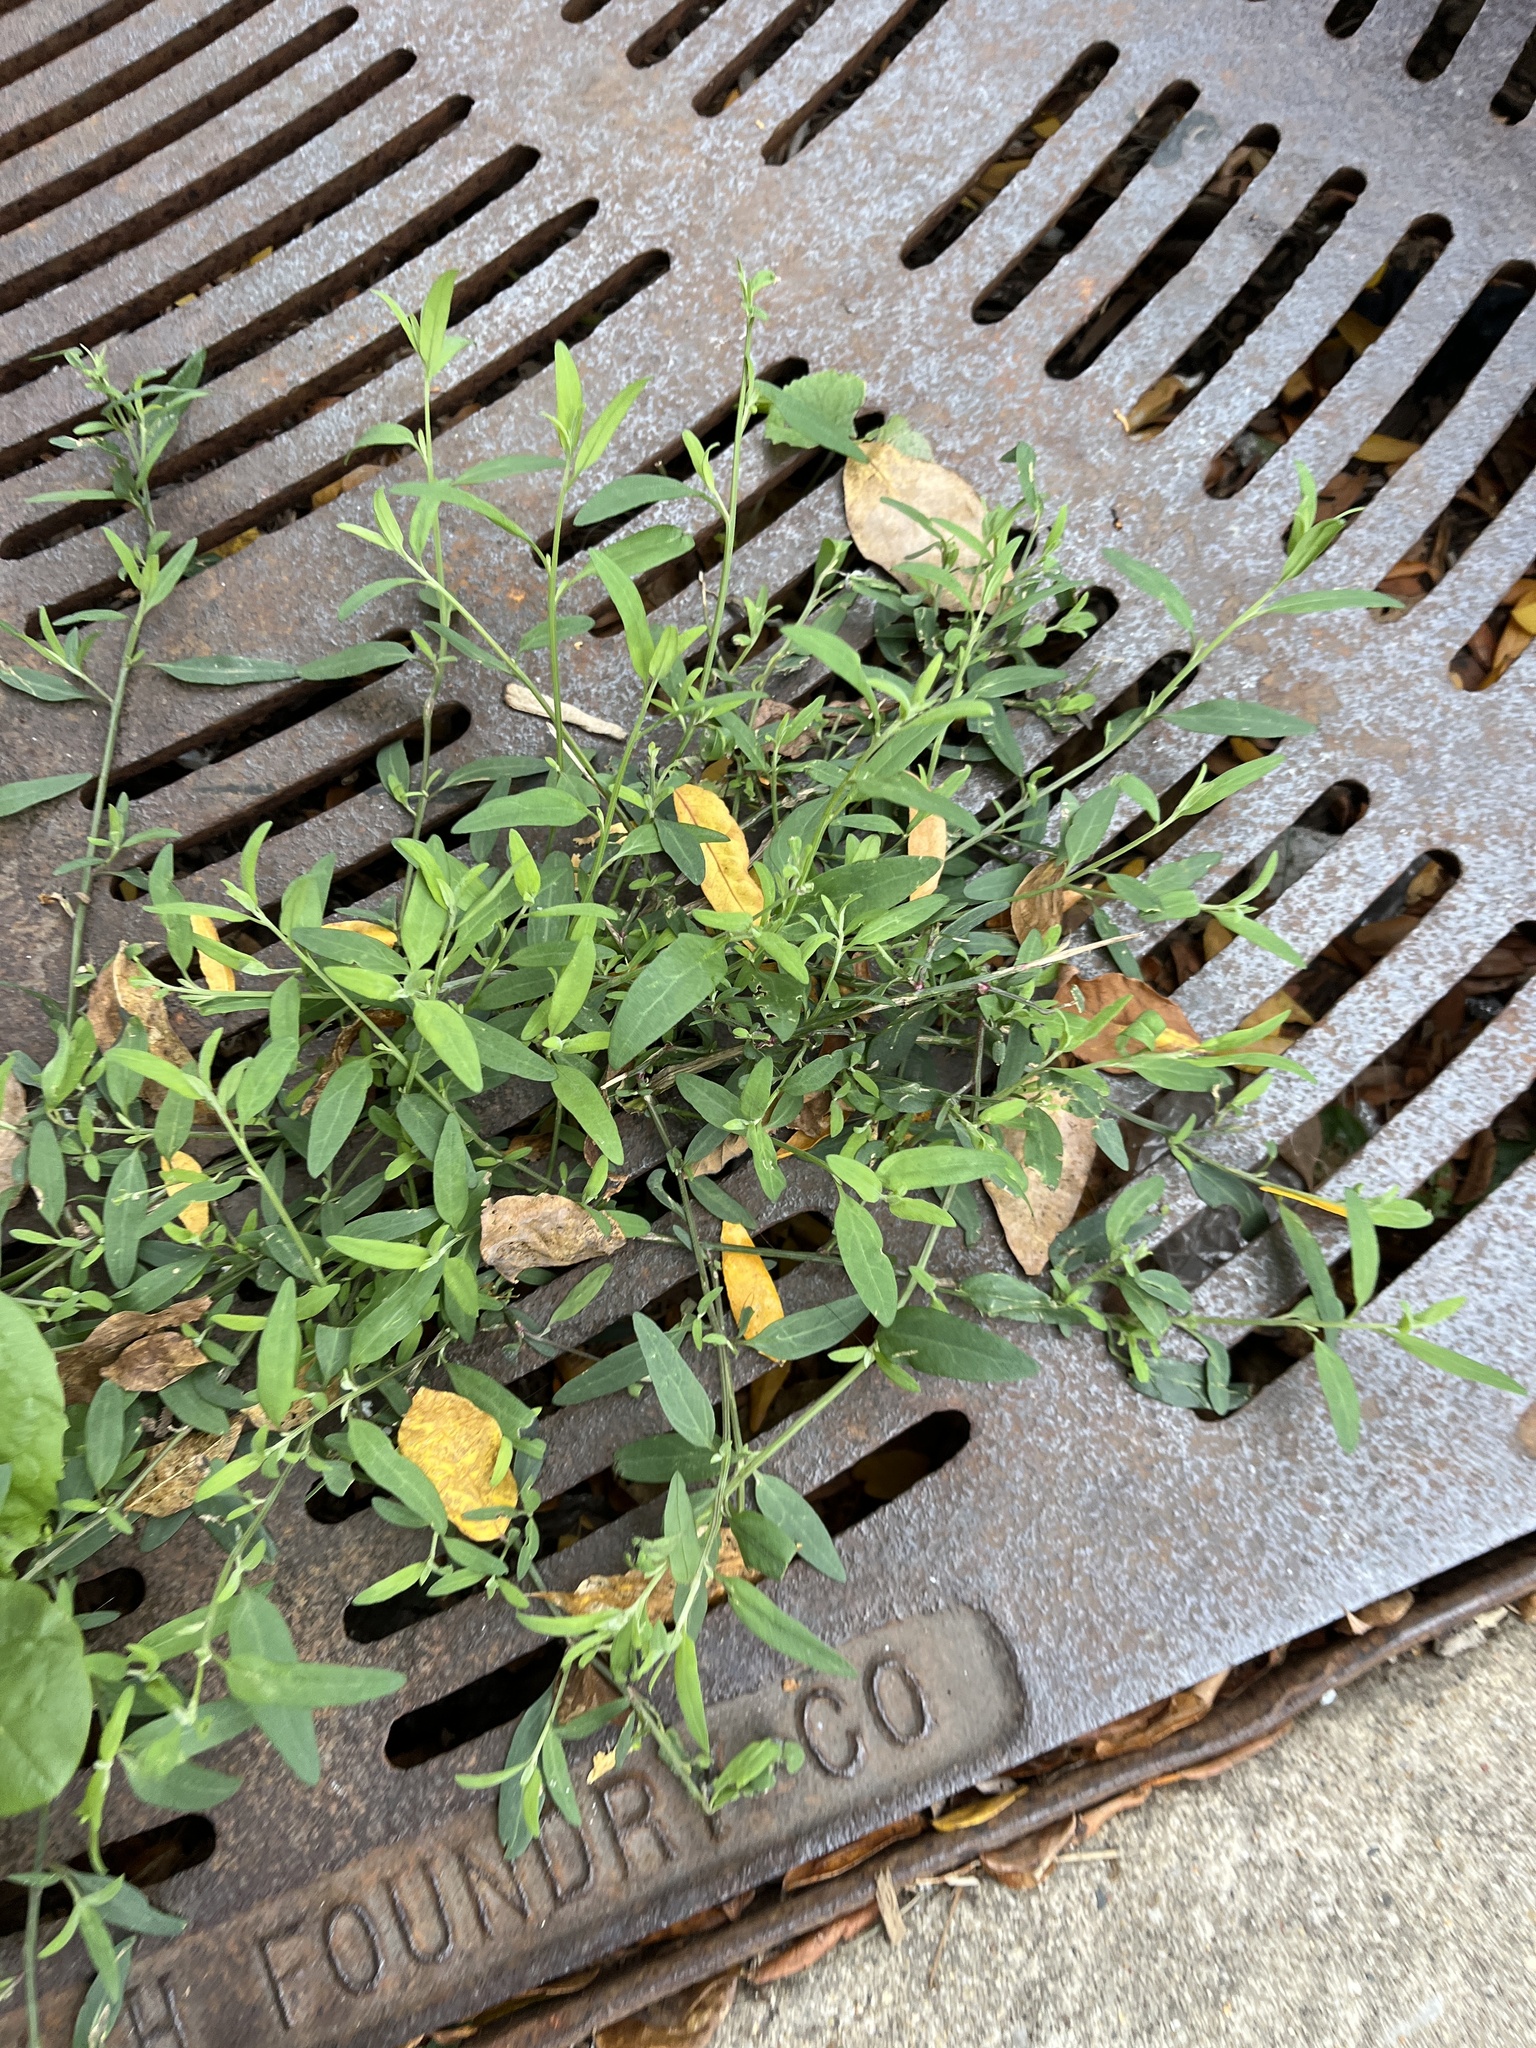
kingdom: Plantae
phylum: Tracheophyta
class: Magnoliopsida
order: Caryophyllales
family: Amaranthaceae
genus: Atriplex
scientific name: Atriplex patula
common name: Common orache
